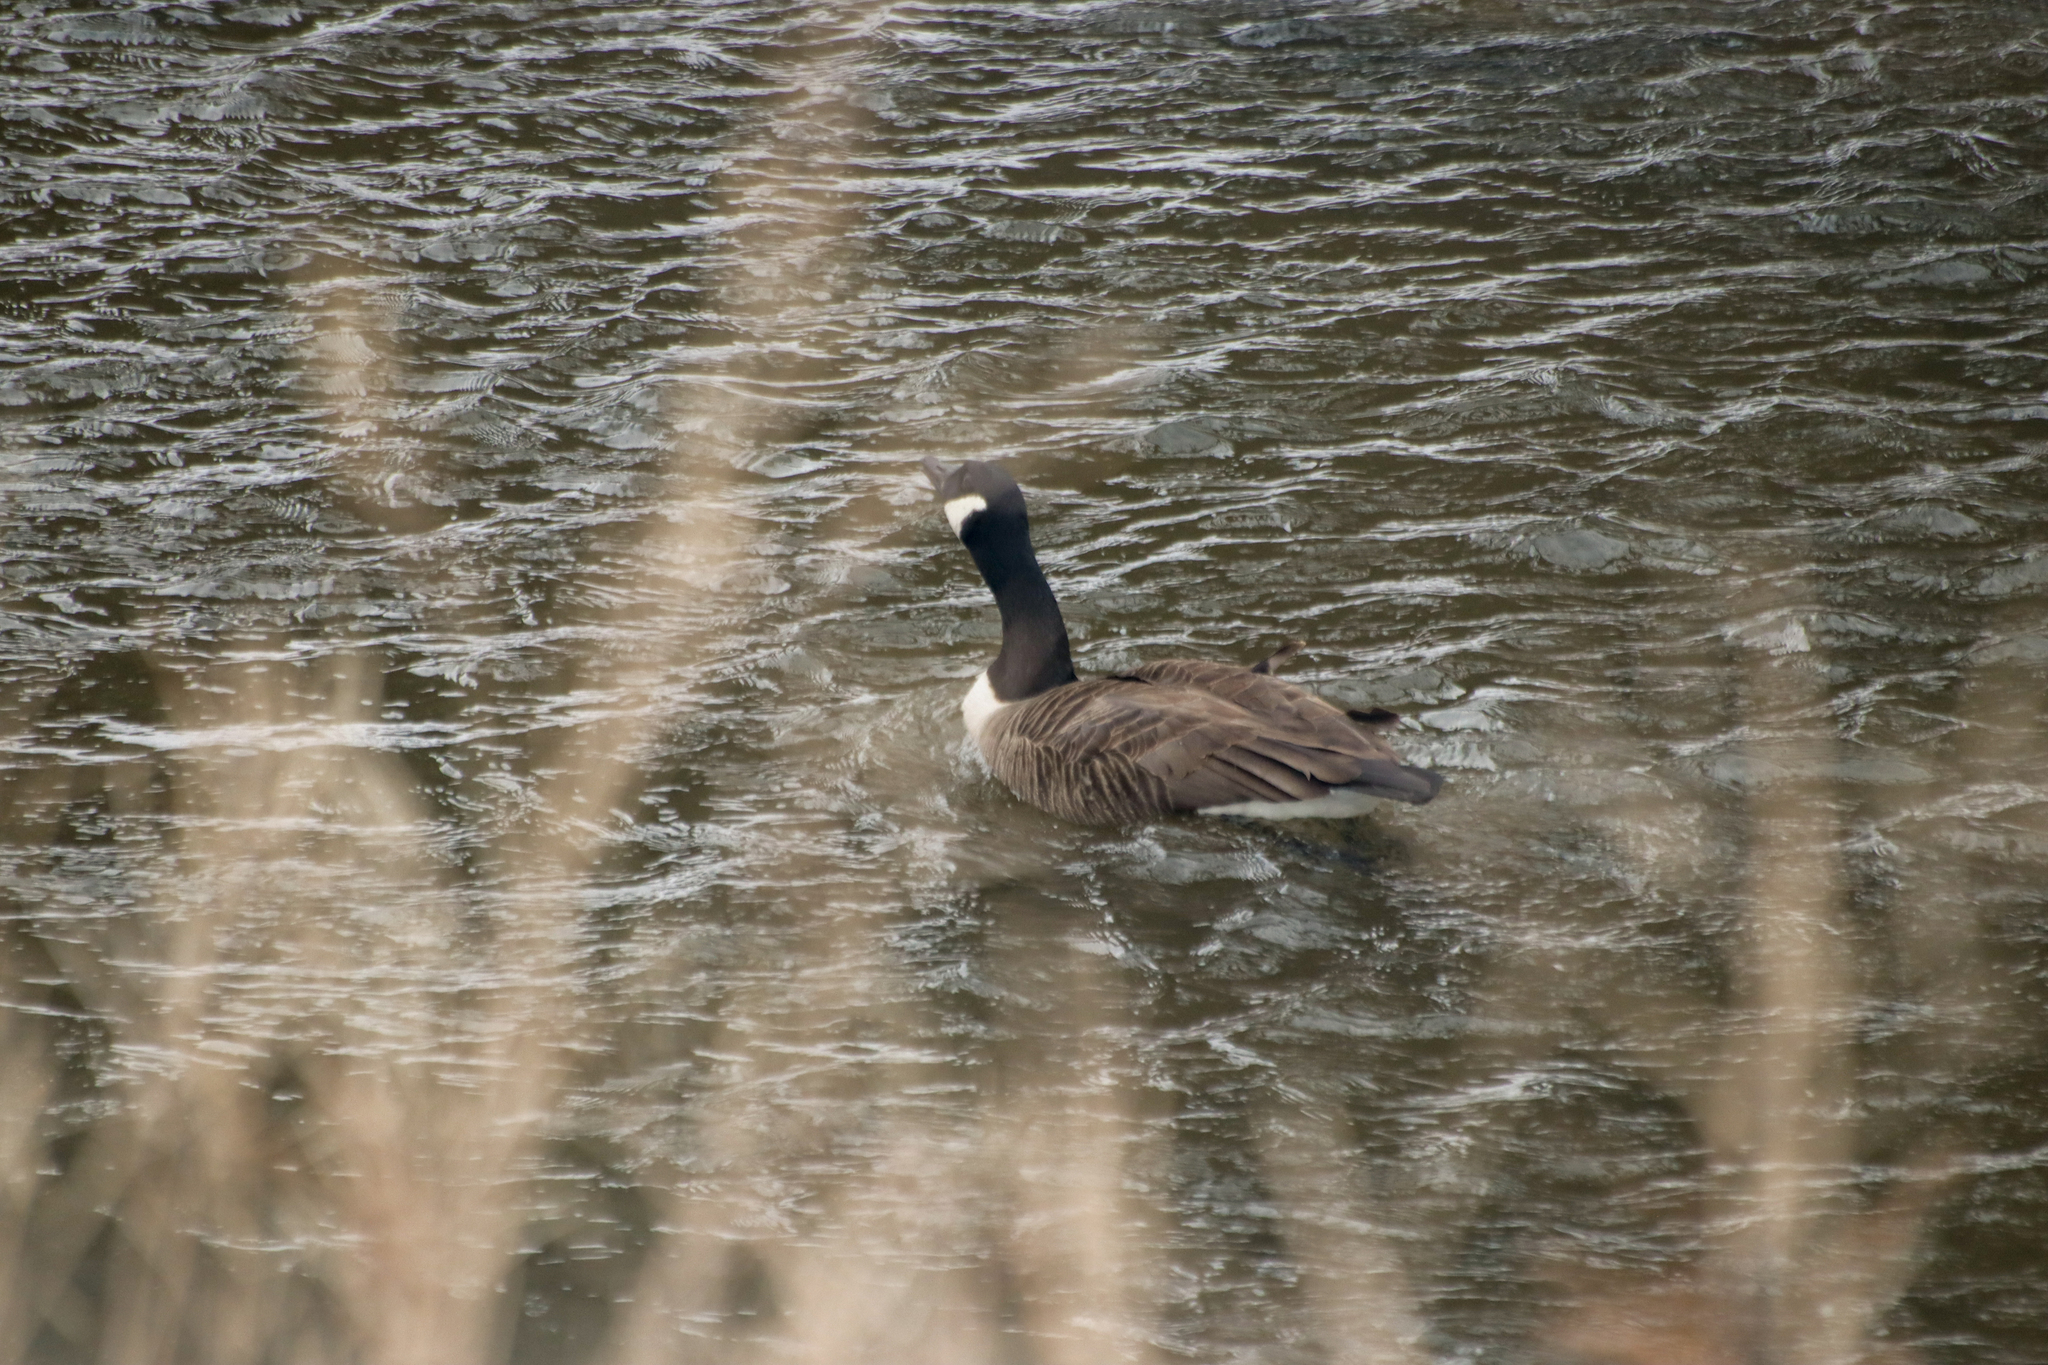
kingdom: Animalia
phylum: Chordata
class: Aves
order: Anseriformes
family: Anatidae
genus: Branta
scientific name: Branta canadensis
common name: Canada goose
